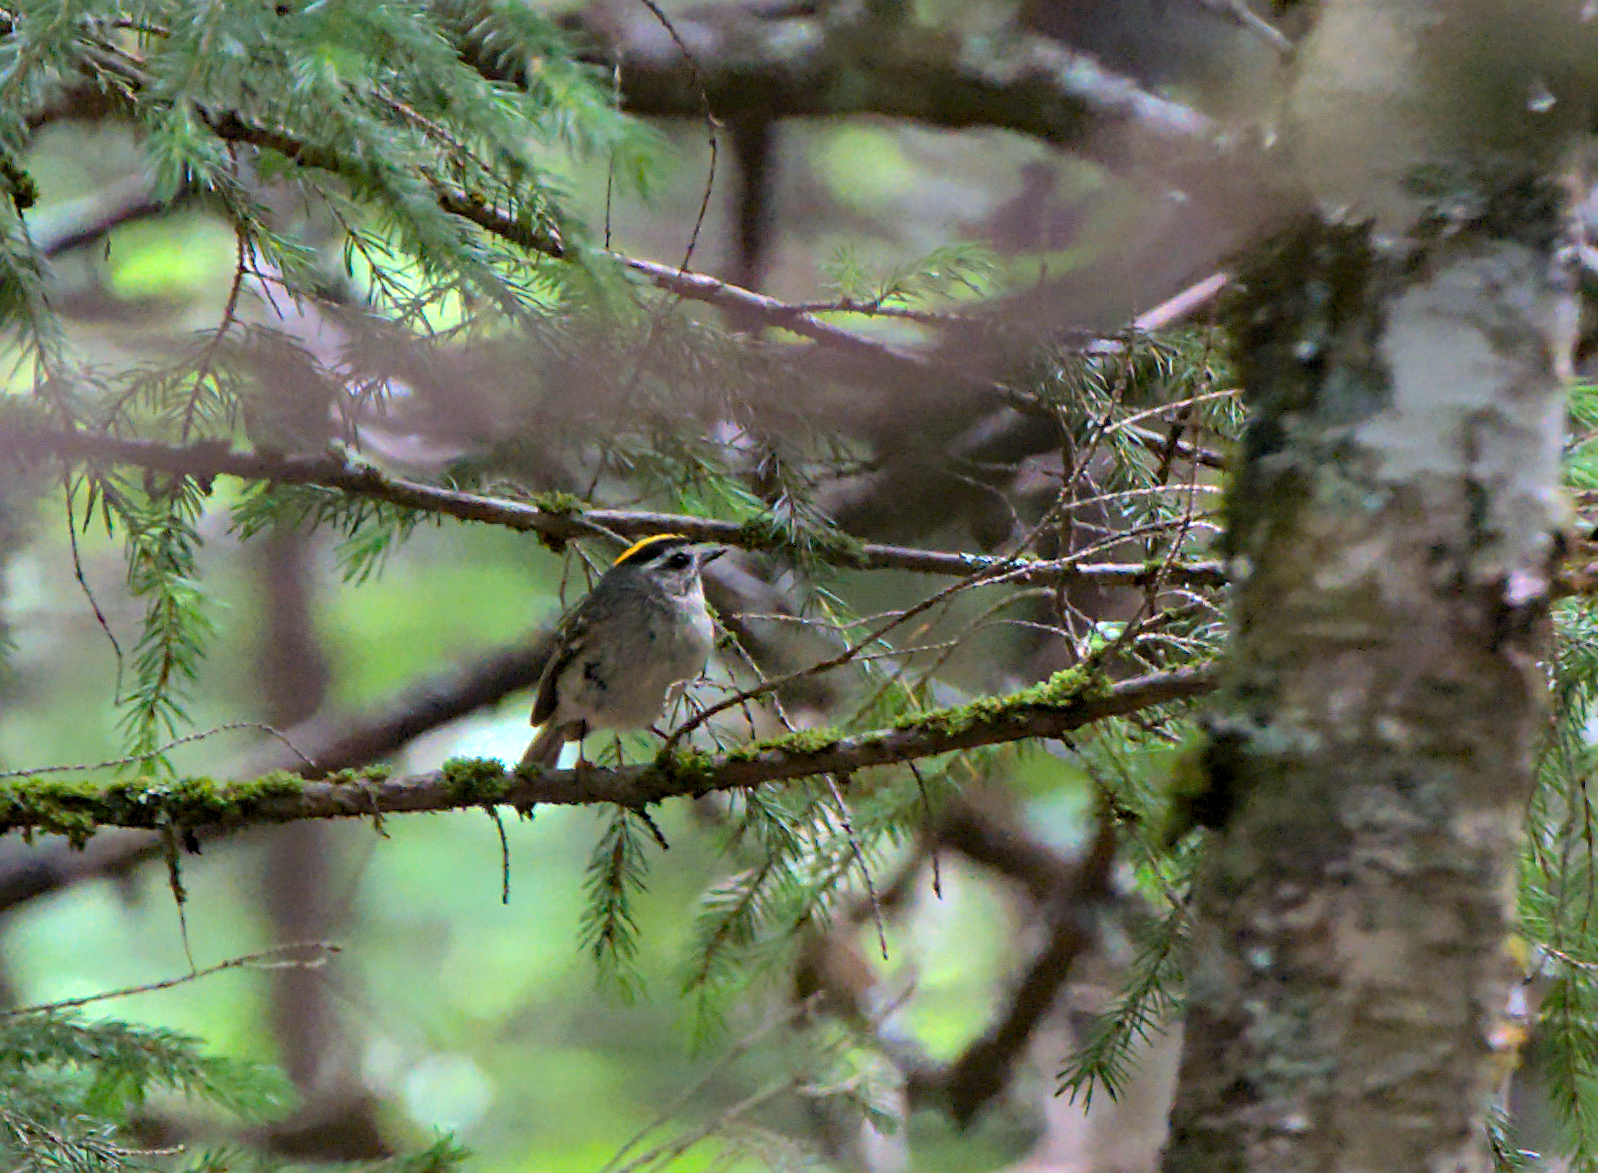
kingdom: Animalia
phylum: Chordata
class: Aves
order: Passeriformes
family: Regulidae
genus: Regulus
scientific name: Regulus satrapa
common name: Golden-crowned kinglet
